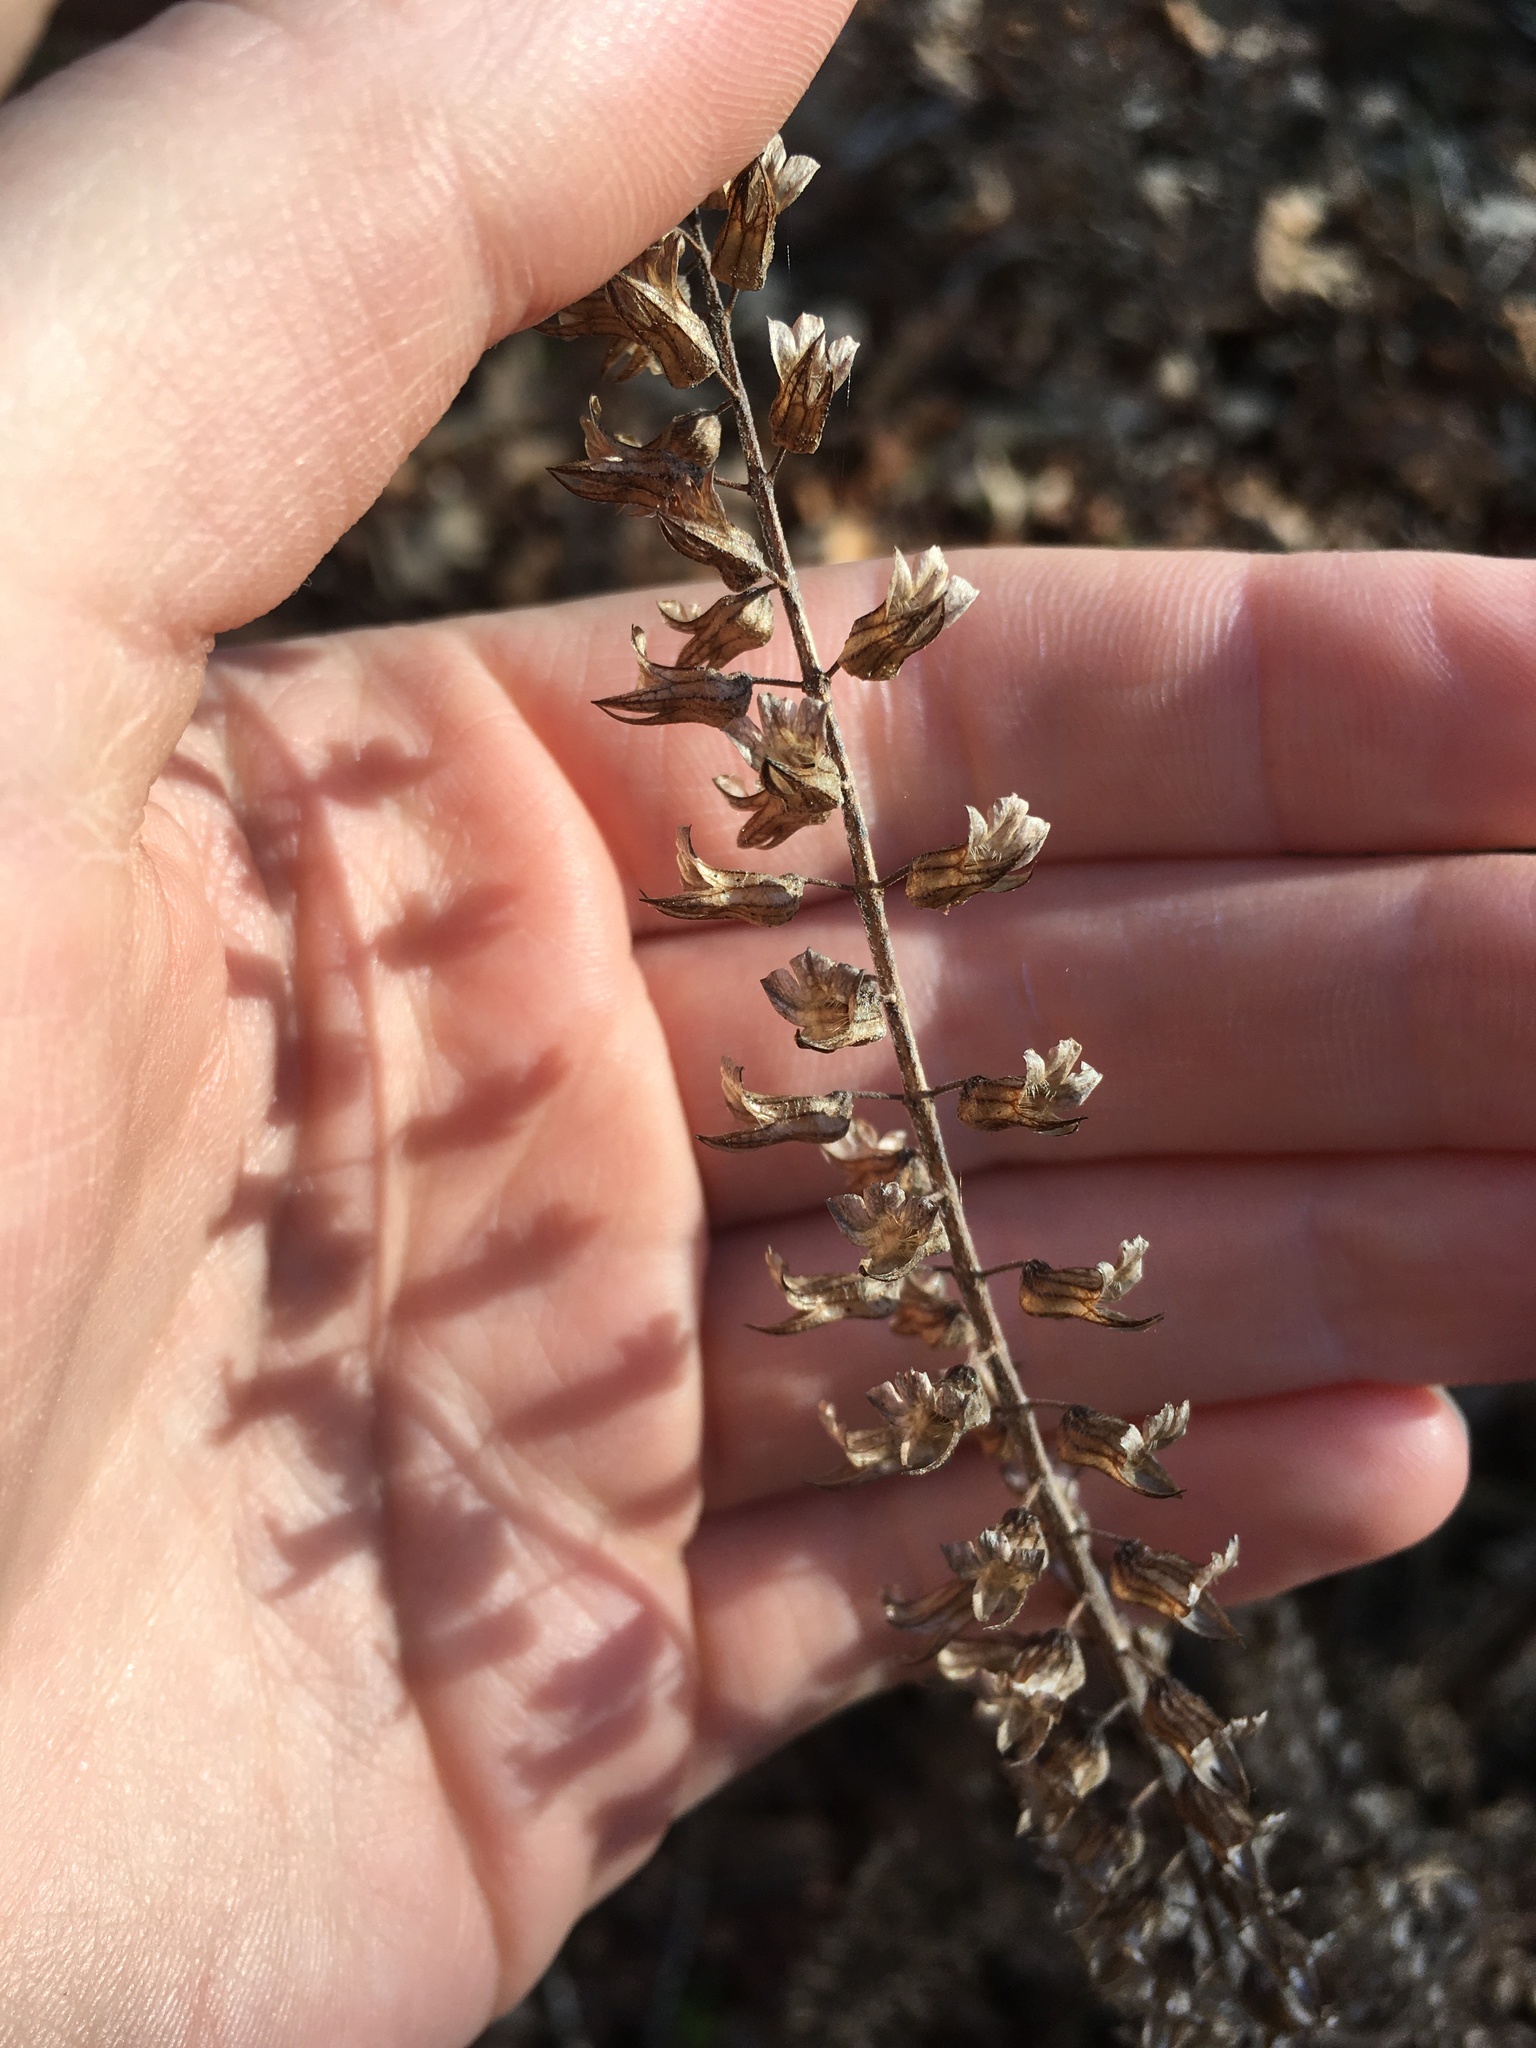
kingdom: Plantae
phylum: Tracheophyta
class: Magnoliopsida
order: Lamiales
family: Lamiaceae
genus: Perilla
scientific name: Perilla frutescens
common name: Perilla
